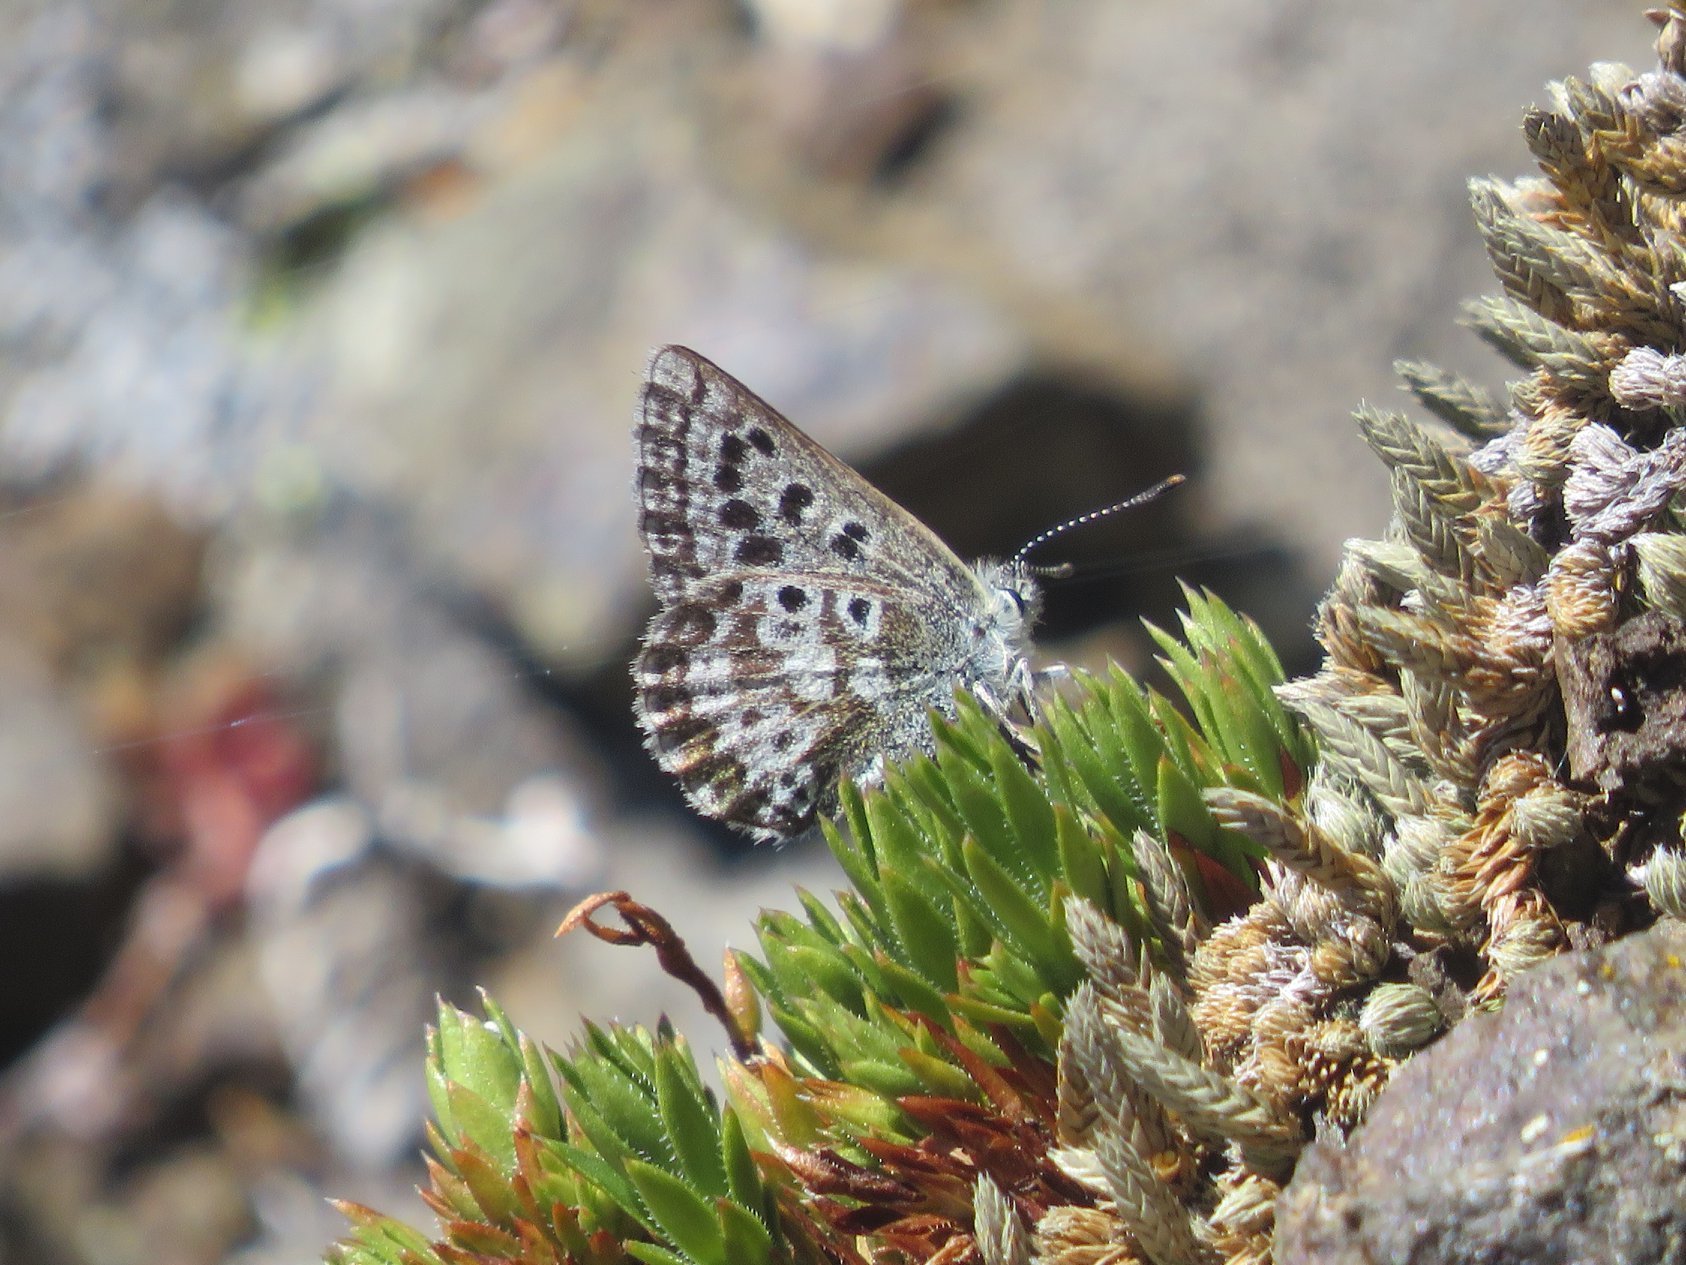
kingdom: Animalia
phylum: Arthropoda
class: Insecta
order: Lepidoptera
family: Lycaenidae
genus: Agriades
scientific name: Agriades glandon
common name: Glandon blue
